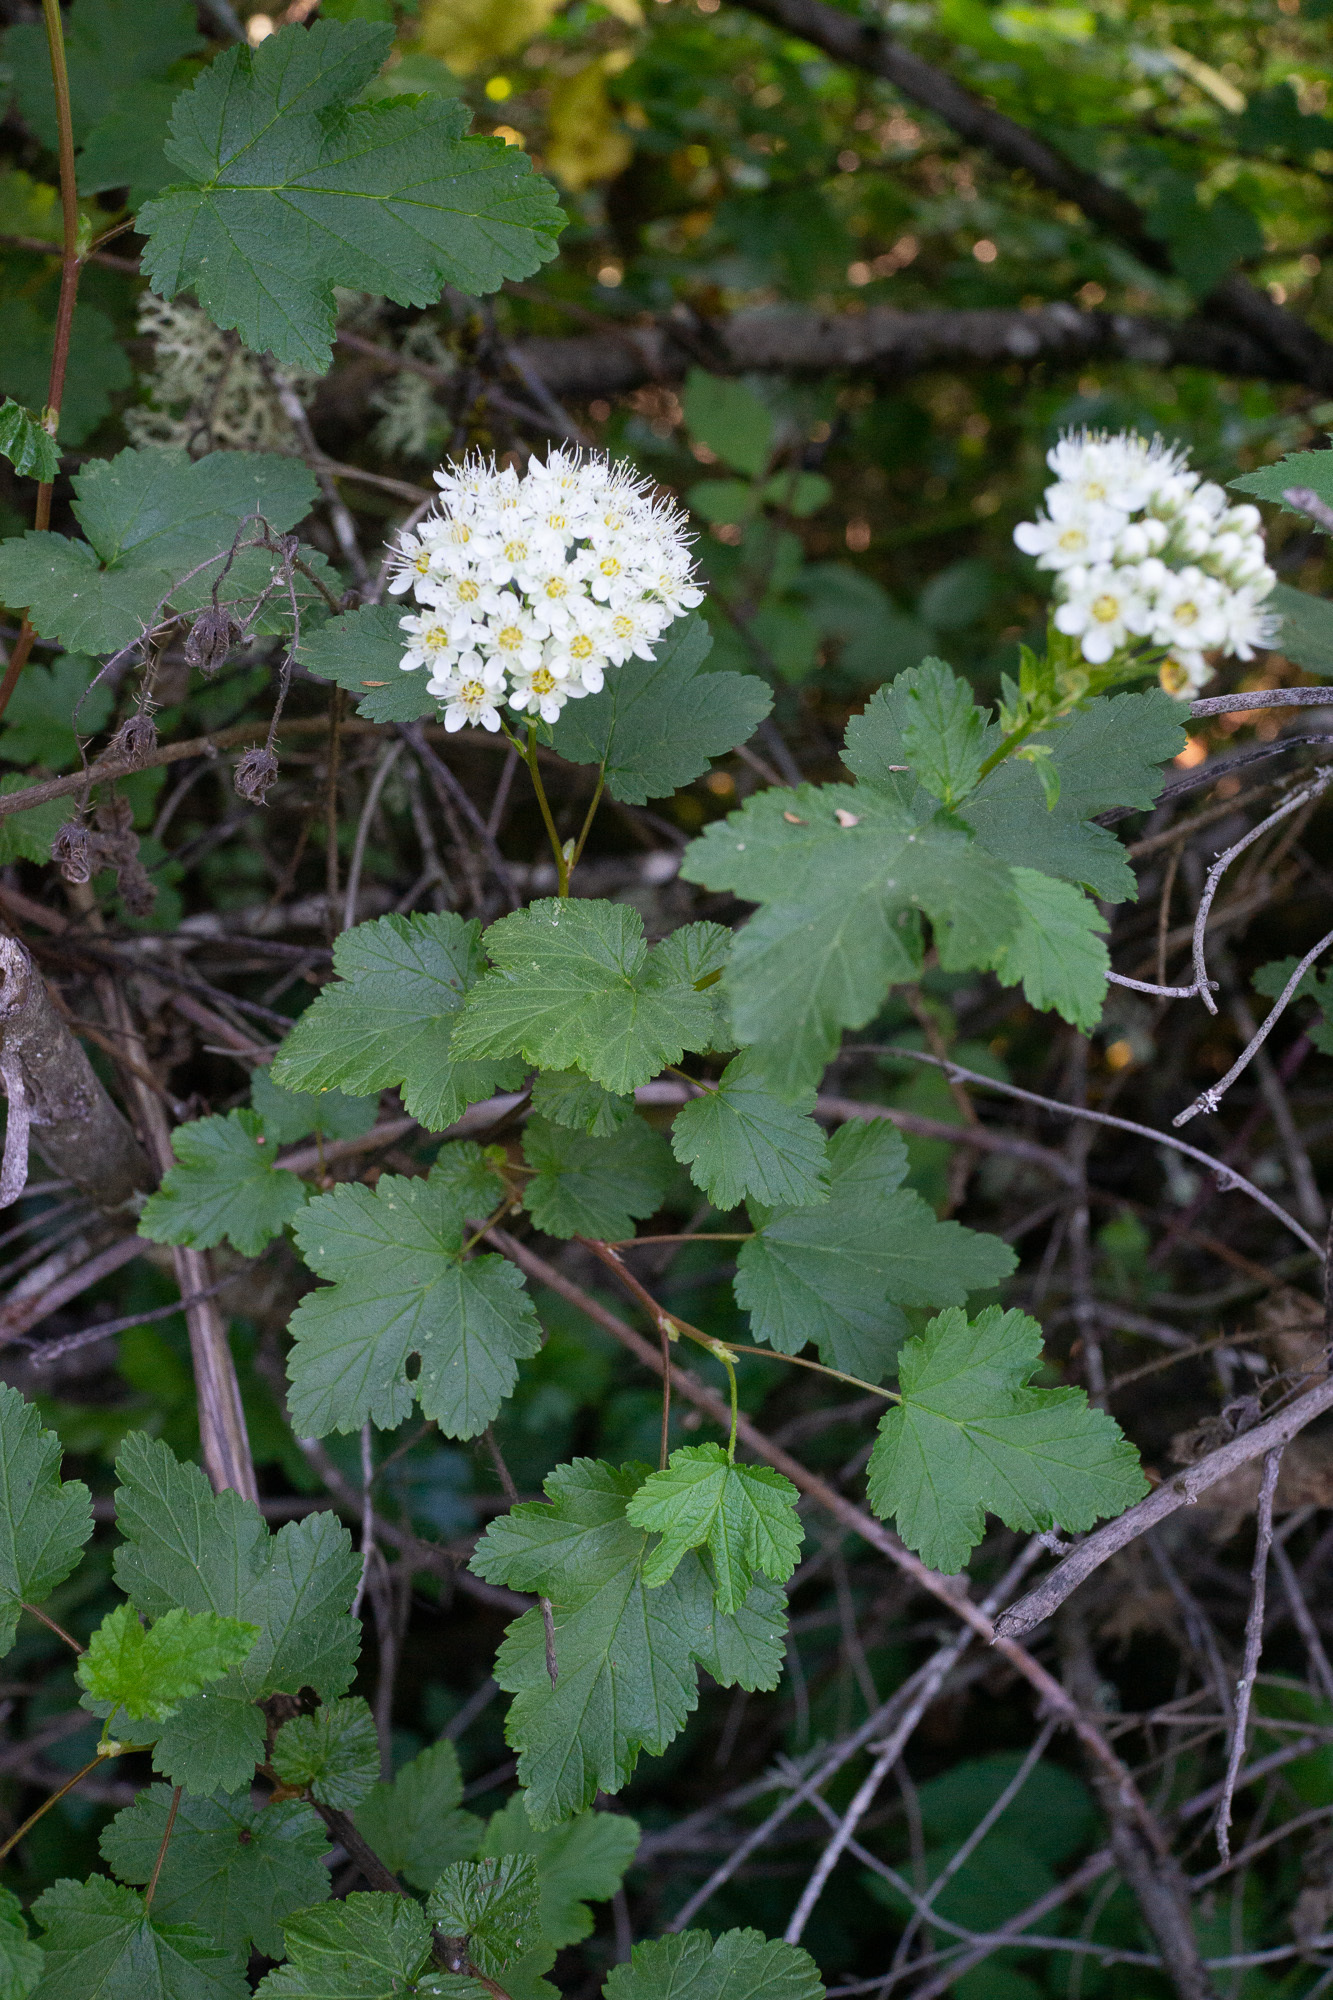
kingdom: Plantae
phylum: Tracheophyta
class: Magnoliopsida
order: Rosales
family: Rosaceae
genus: Physocarpus
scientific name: Physocarpus capitatus
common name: Pacific ninebark
